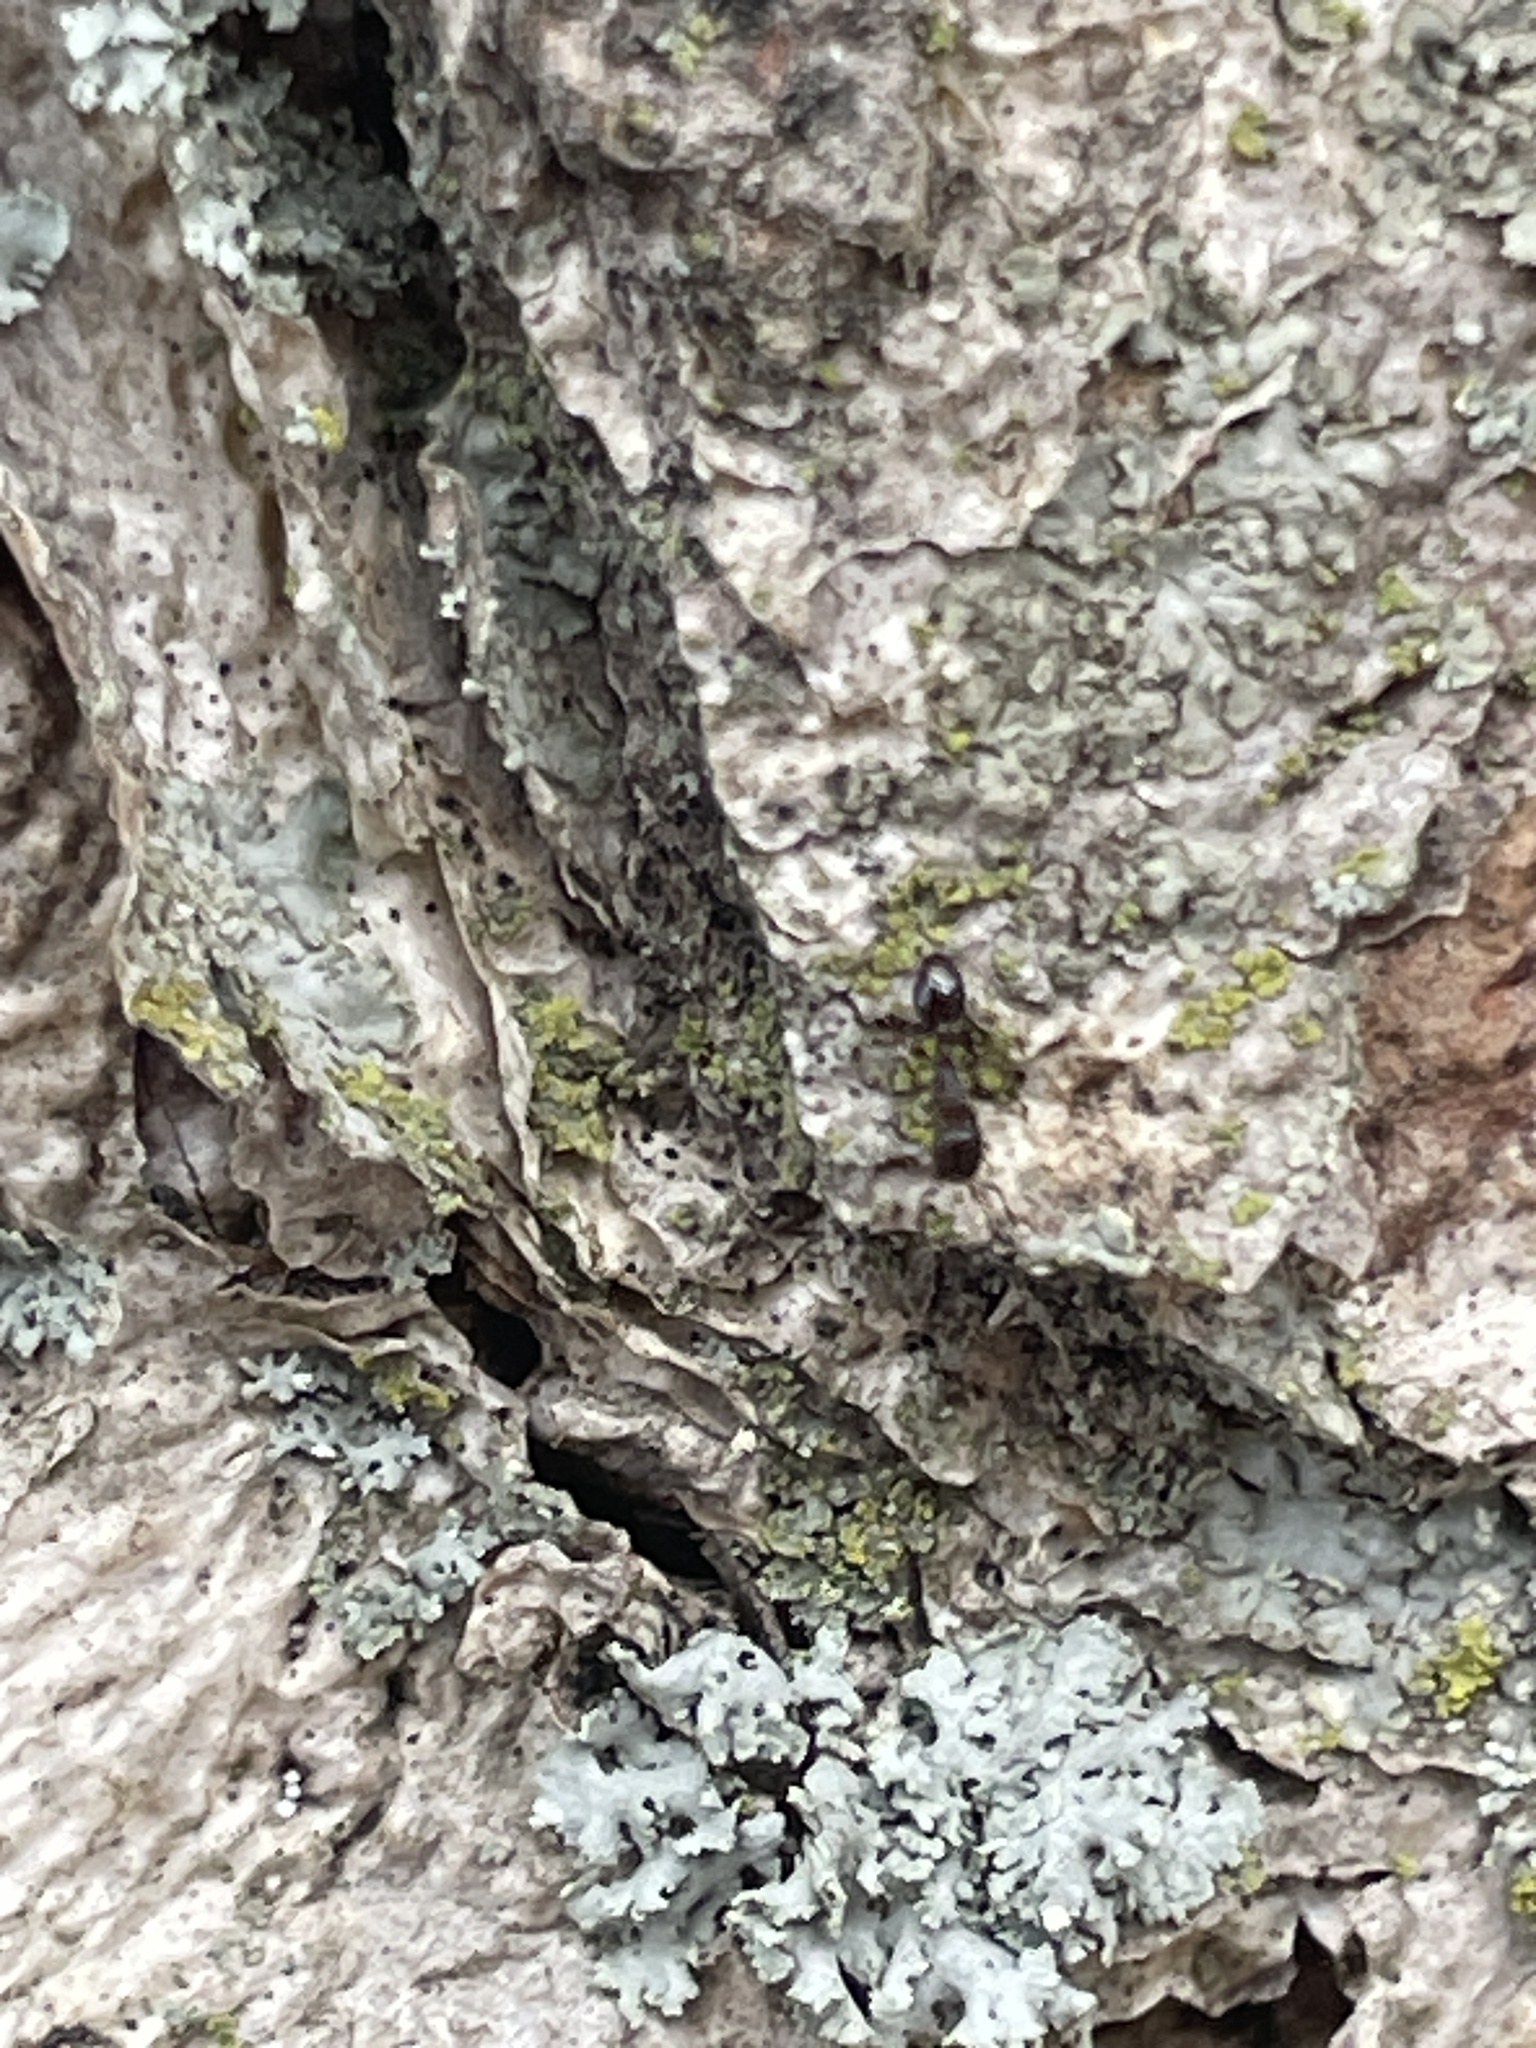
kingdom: Animalia
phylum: Arthropoda
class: Insecta
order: Hymenoptera
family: Formicidae
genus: Tetramorium
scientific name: Tetramorium immigrans
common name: Pavement ant
